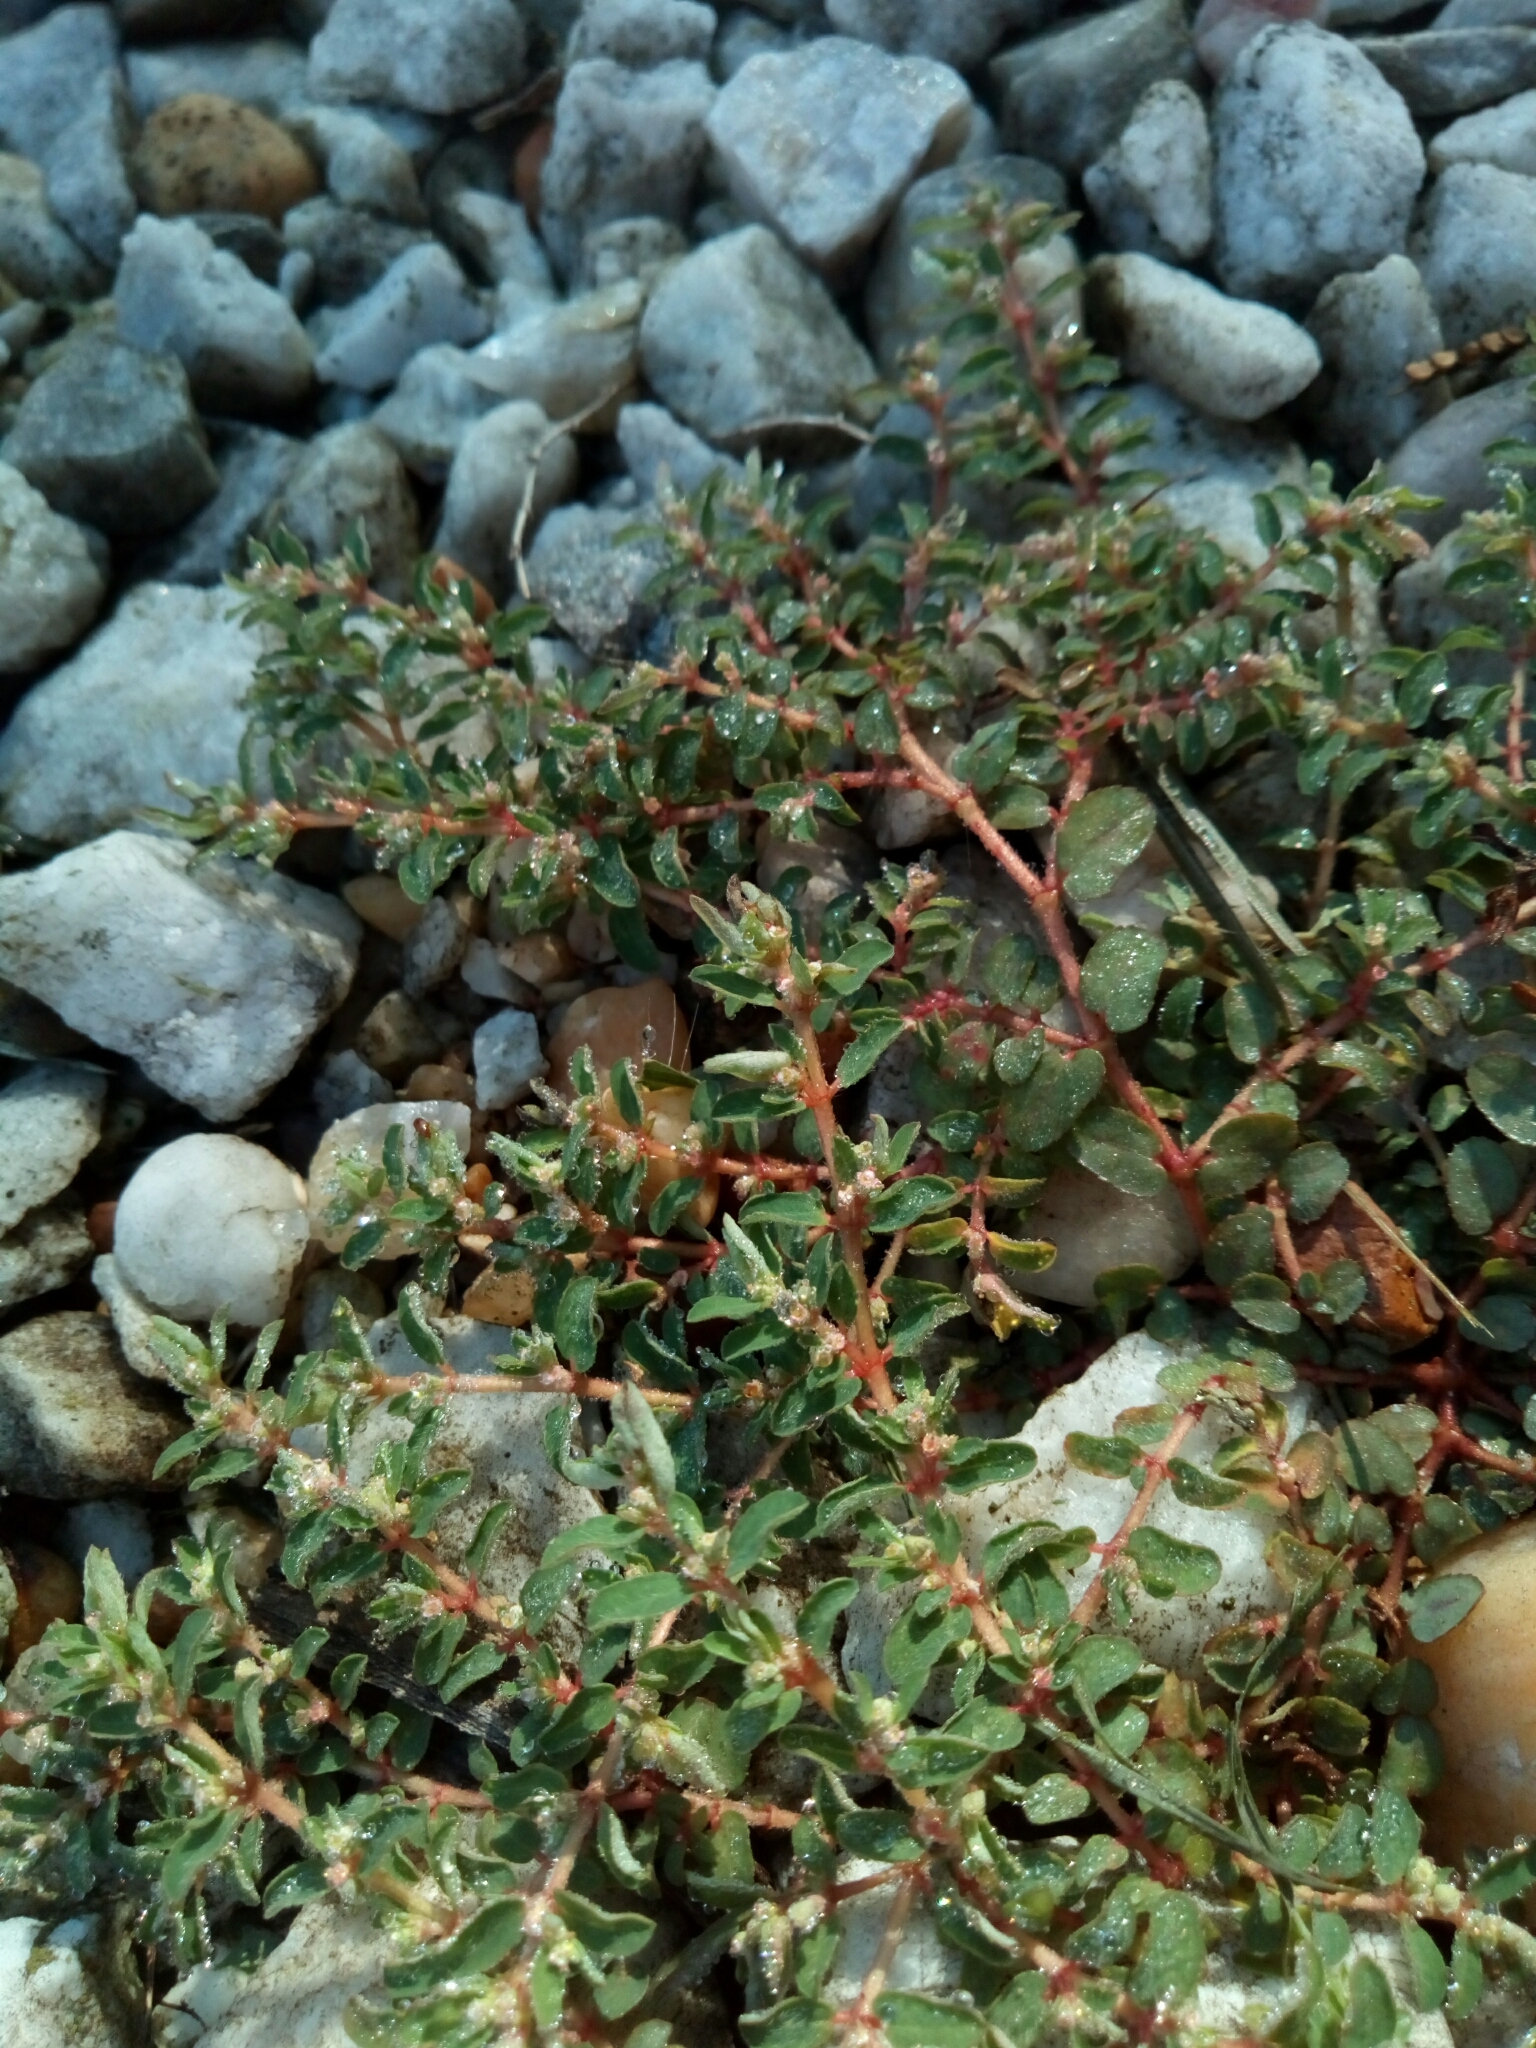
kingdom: Plantae
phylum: Tracheophyta
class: Magnoliopsida
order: Malpighiales
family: Euphorbiaceae
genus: Euphorbia
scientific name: Euphorbia maculata
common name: Spotted spurge
